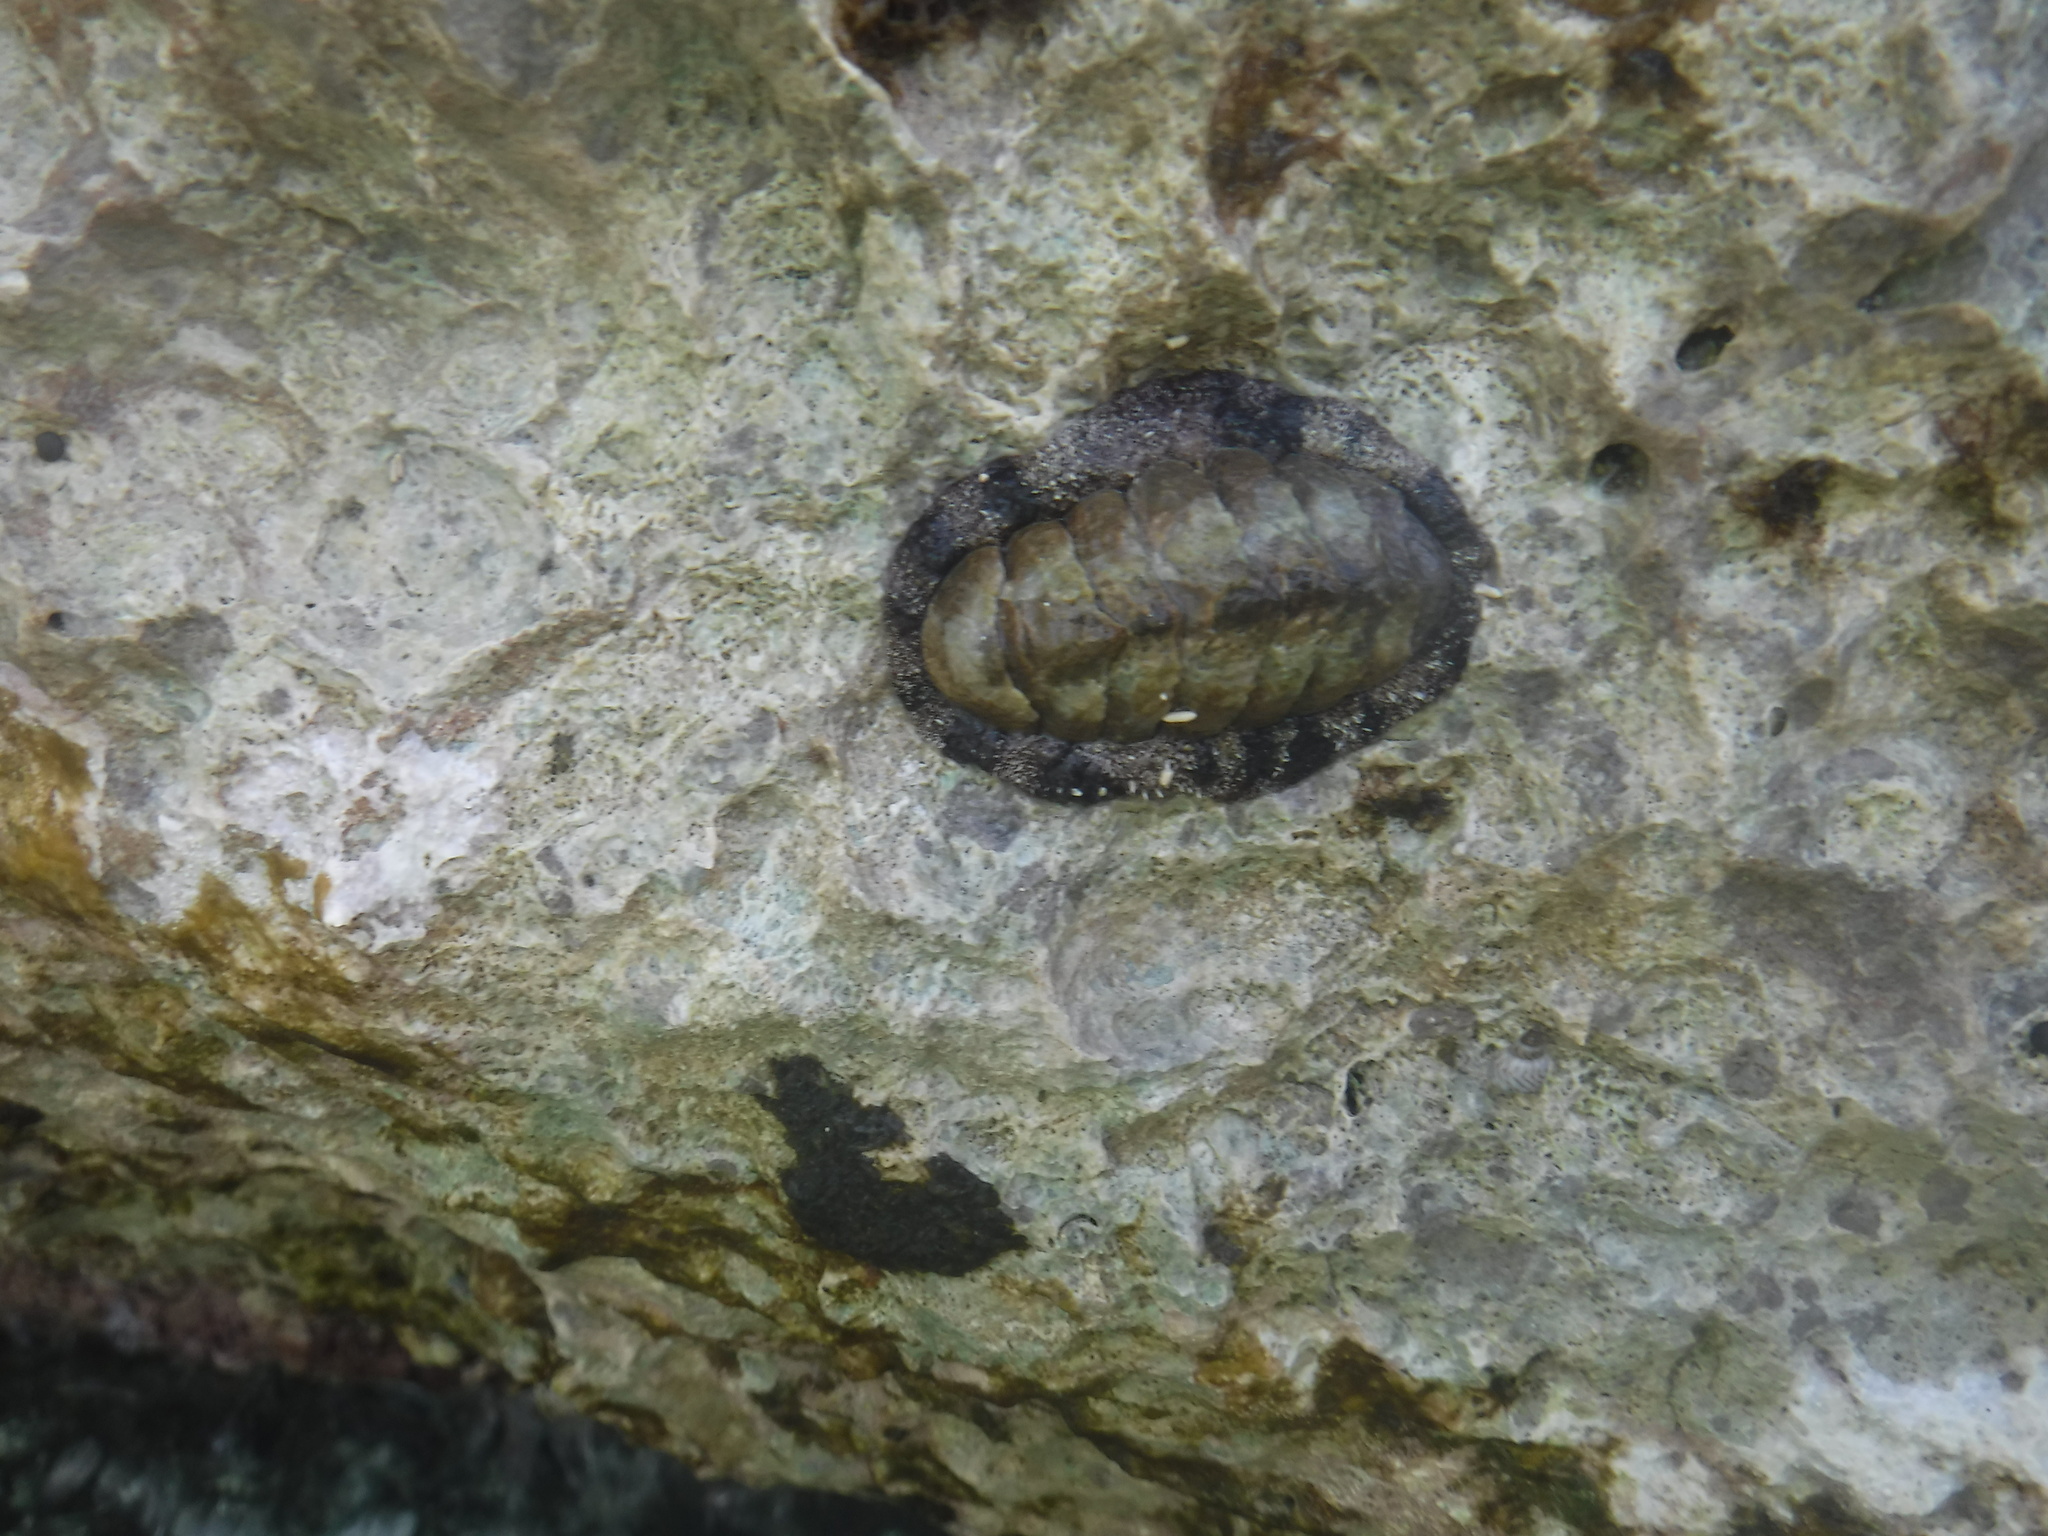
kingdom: Animalia
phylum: Mollusca
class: Polyplacophora
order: Chitonida
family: Chitonidae
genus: Acanthopleura
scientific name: Acanthopleura granulata
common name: West indian fuzzy chiton
